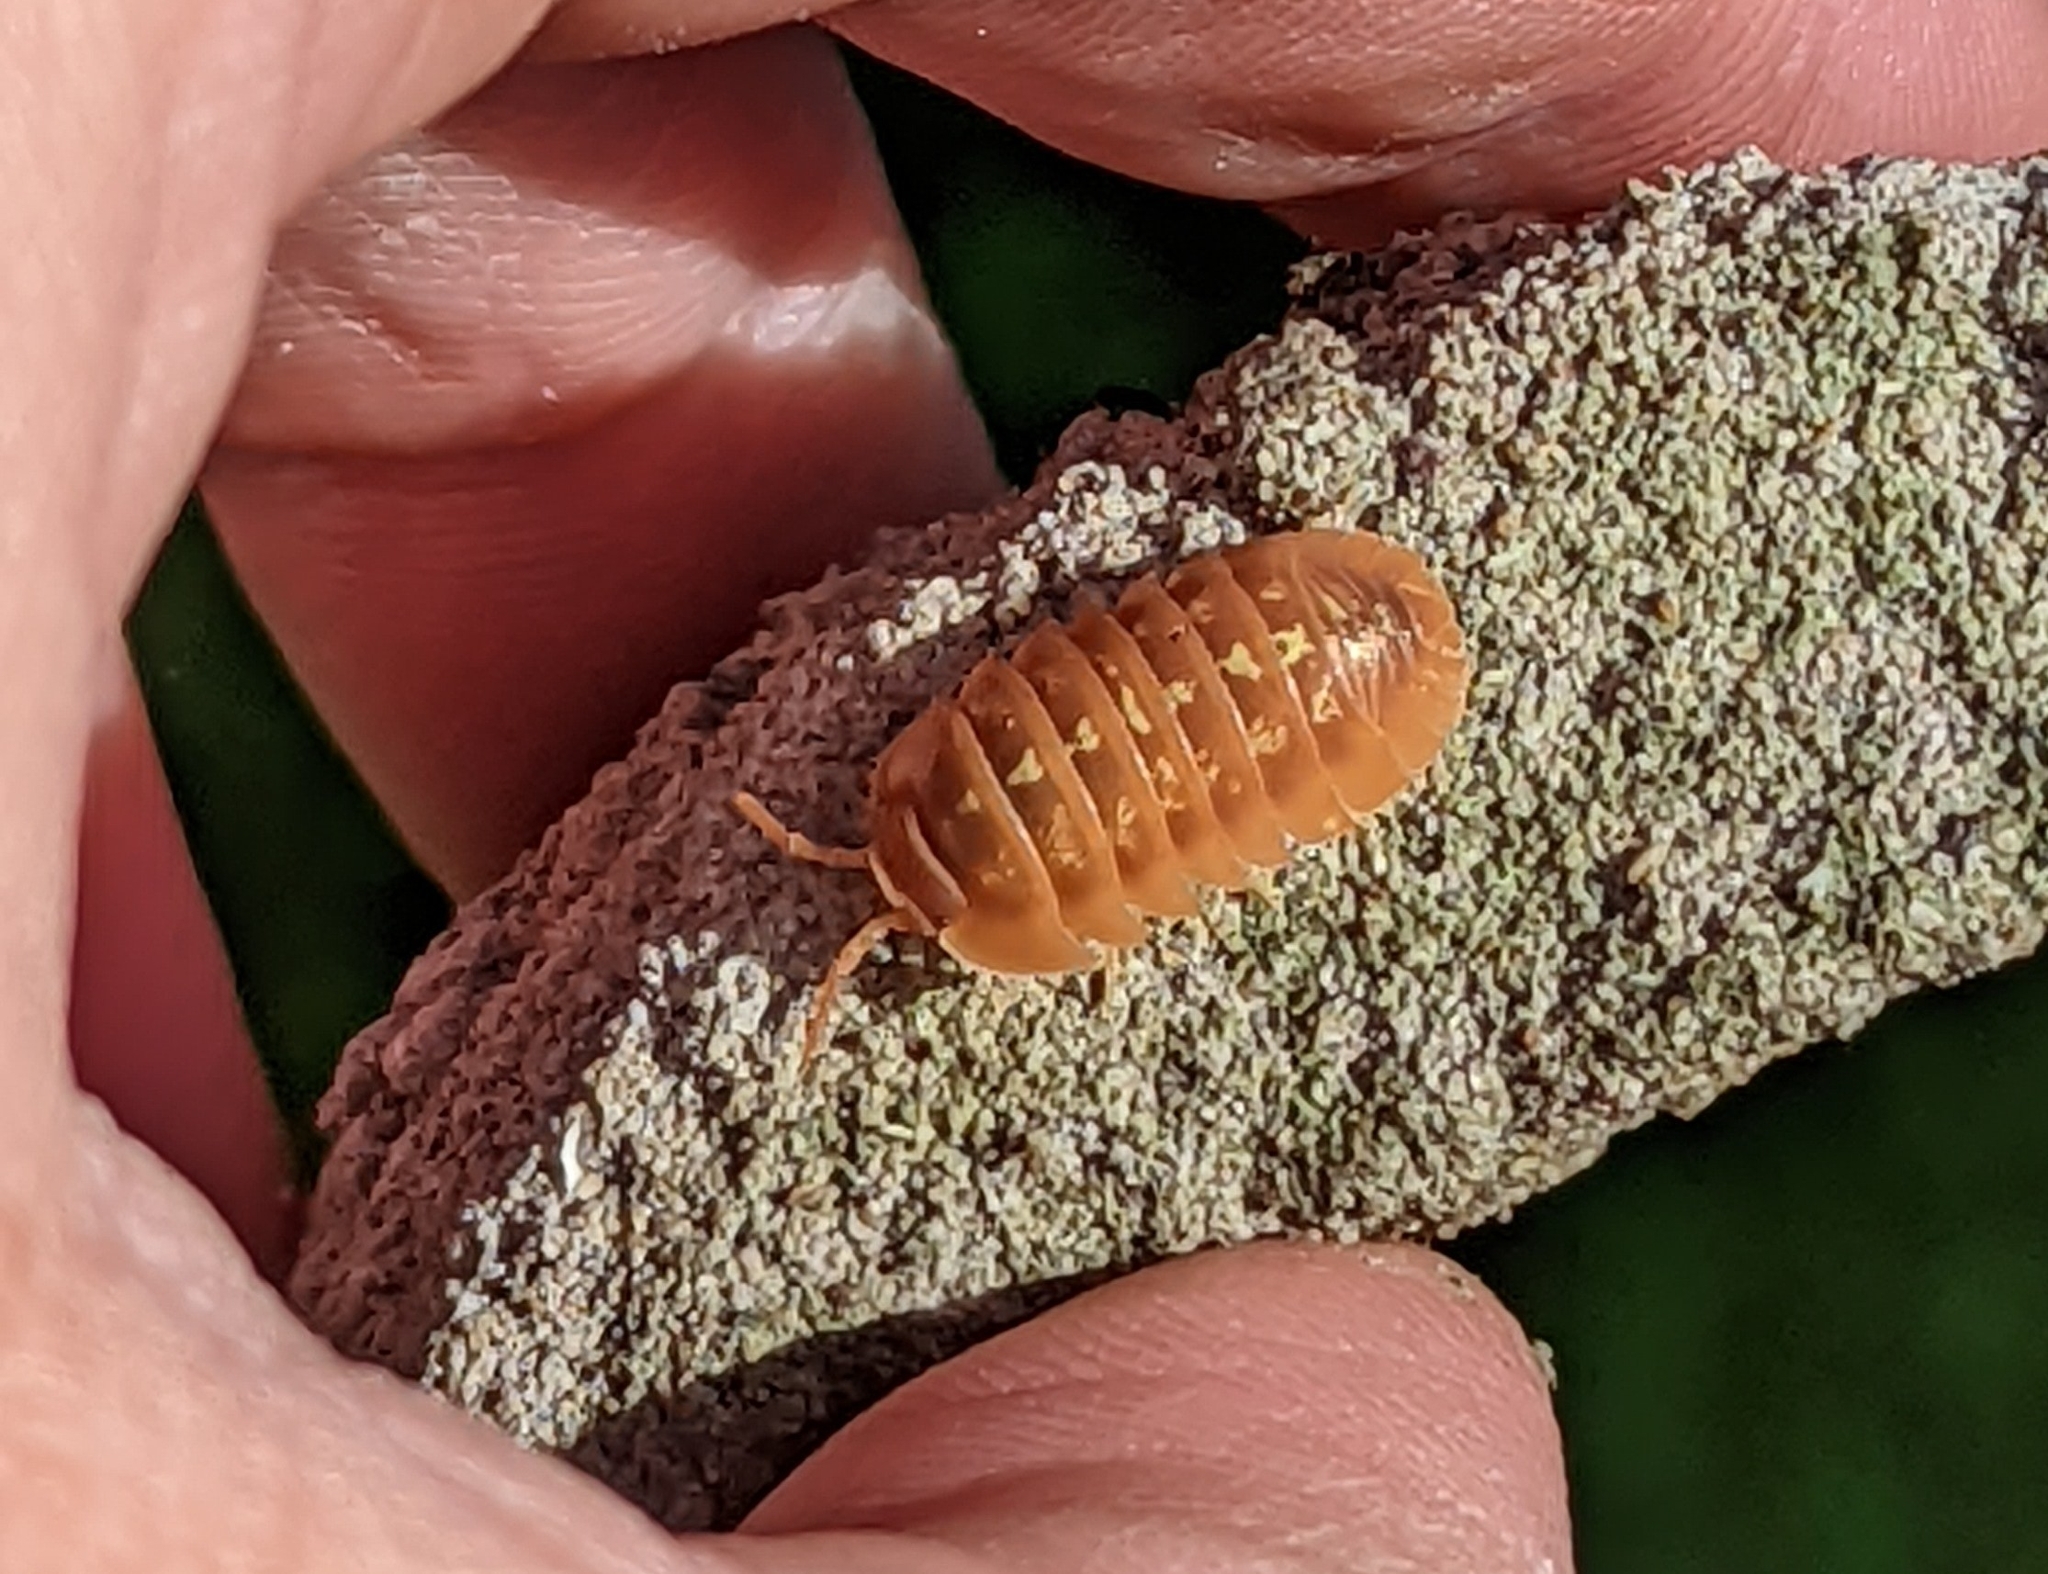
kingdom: Animalia
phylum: Arthropoda
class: Malacostraca
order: Isopoda
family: Armadillidiidae
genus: Armadillidium
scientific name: Armadillidium depressum
